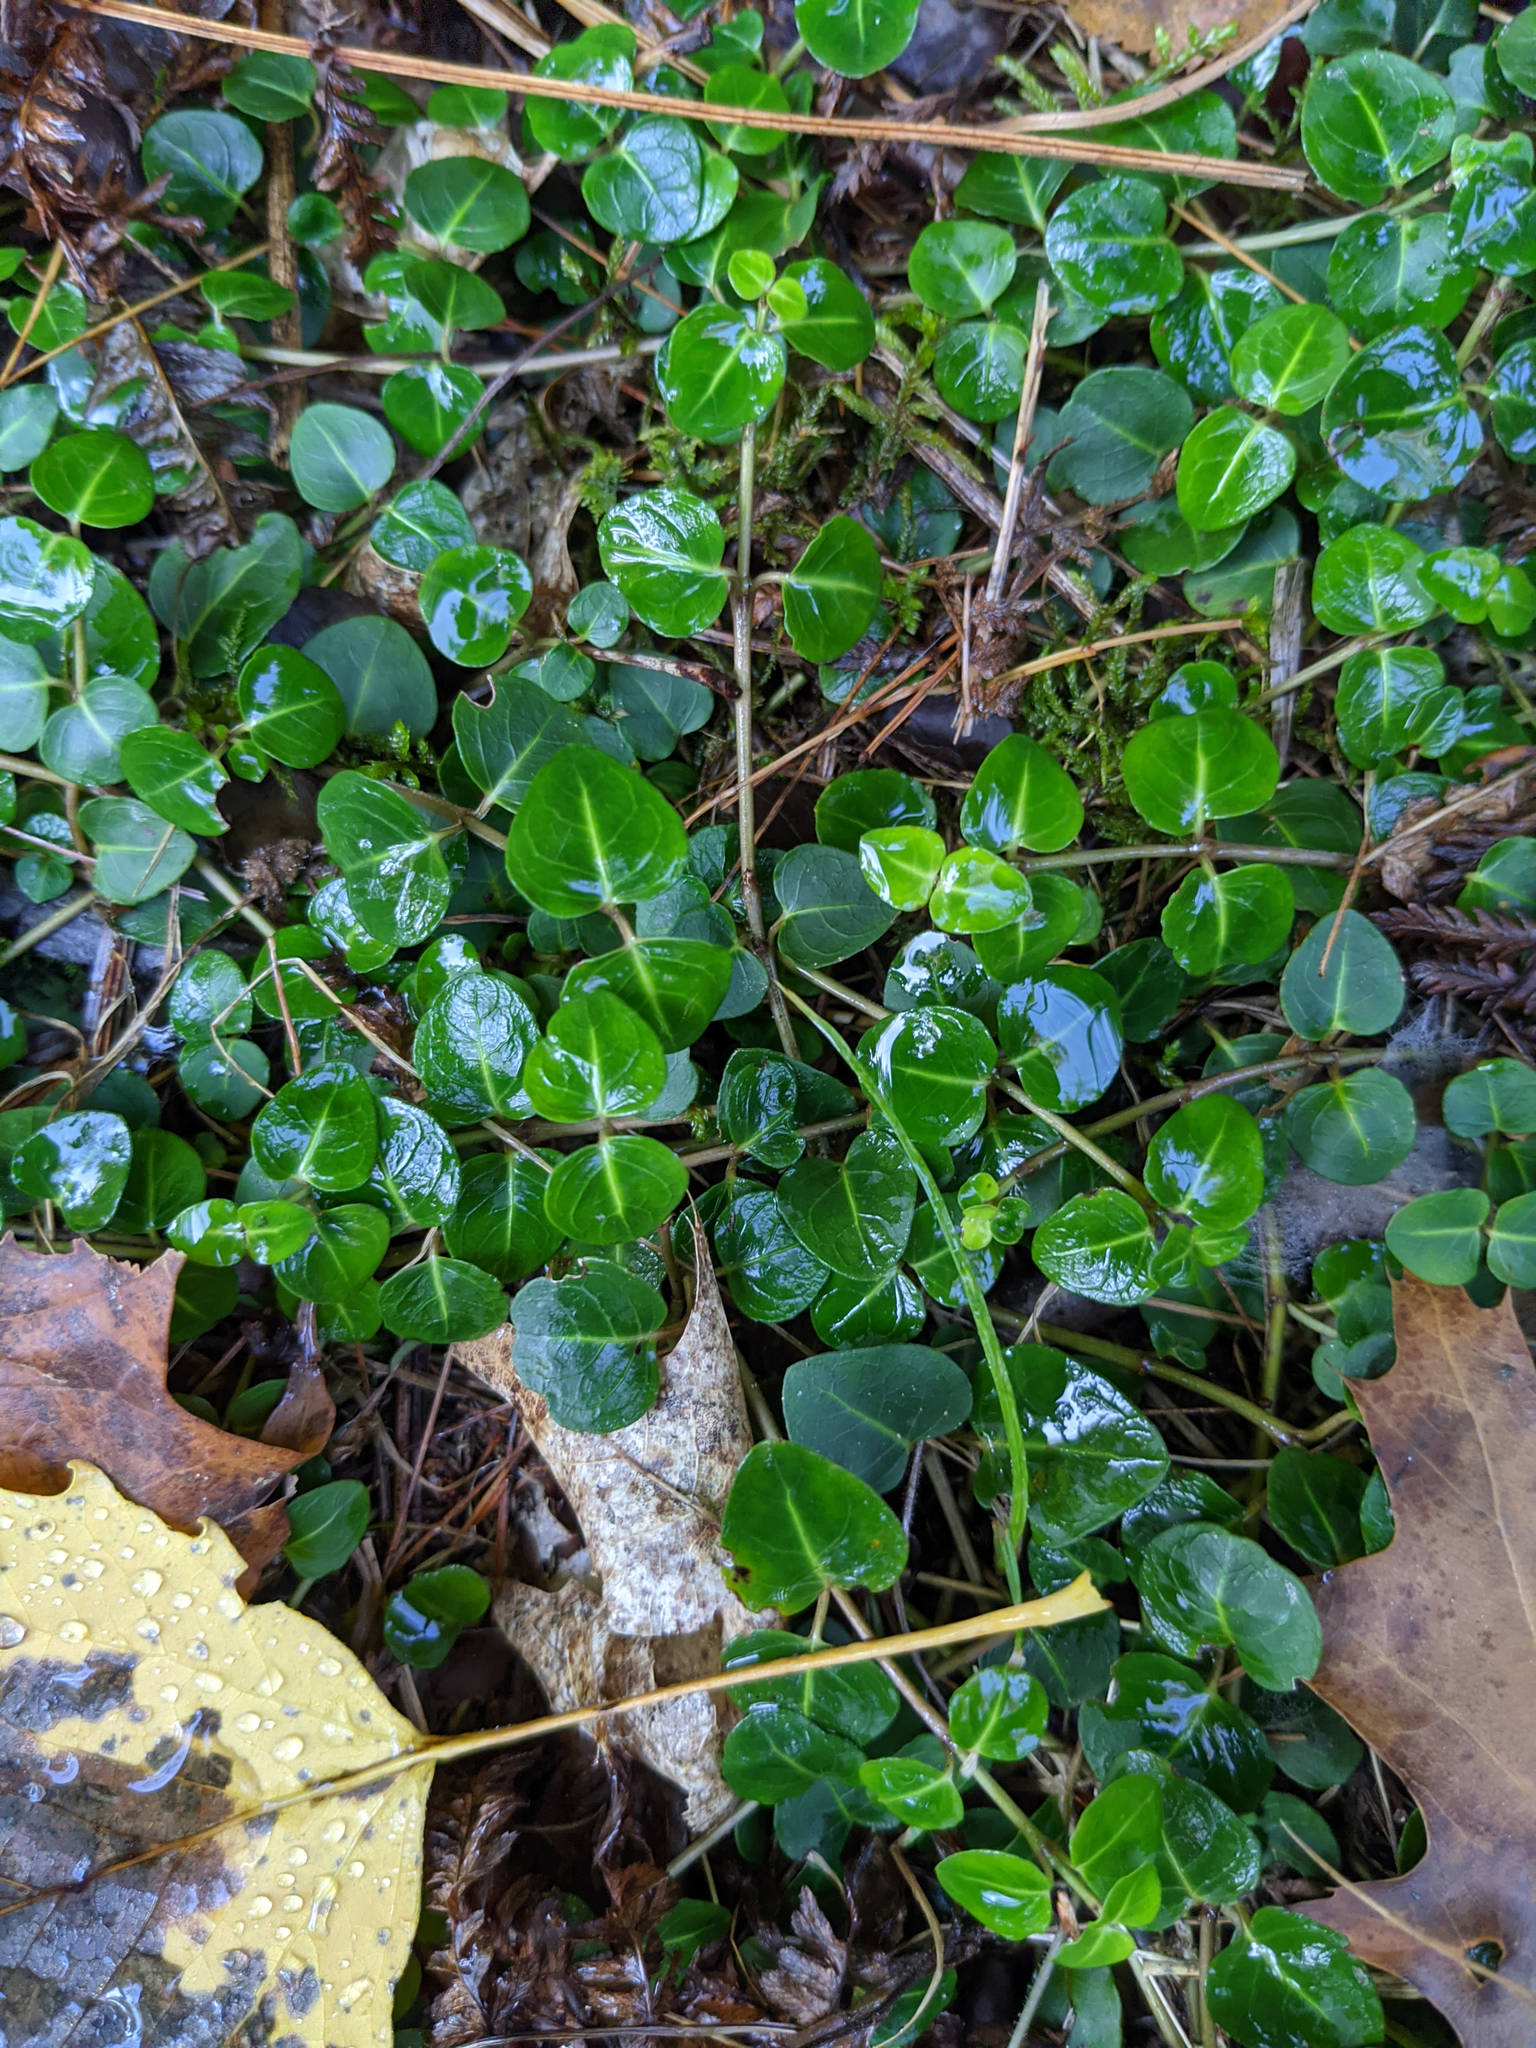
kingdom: Plantae
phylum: Tracheophyta
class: Magnoliopsida
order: Gentianales
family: Rubiaceae
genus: Mitchella
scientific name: Mitchella repens
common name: Partridge-berry
